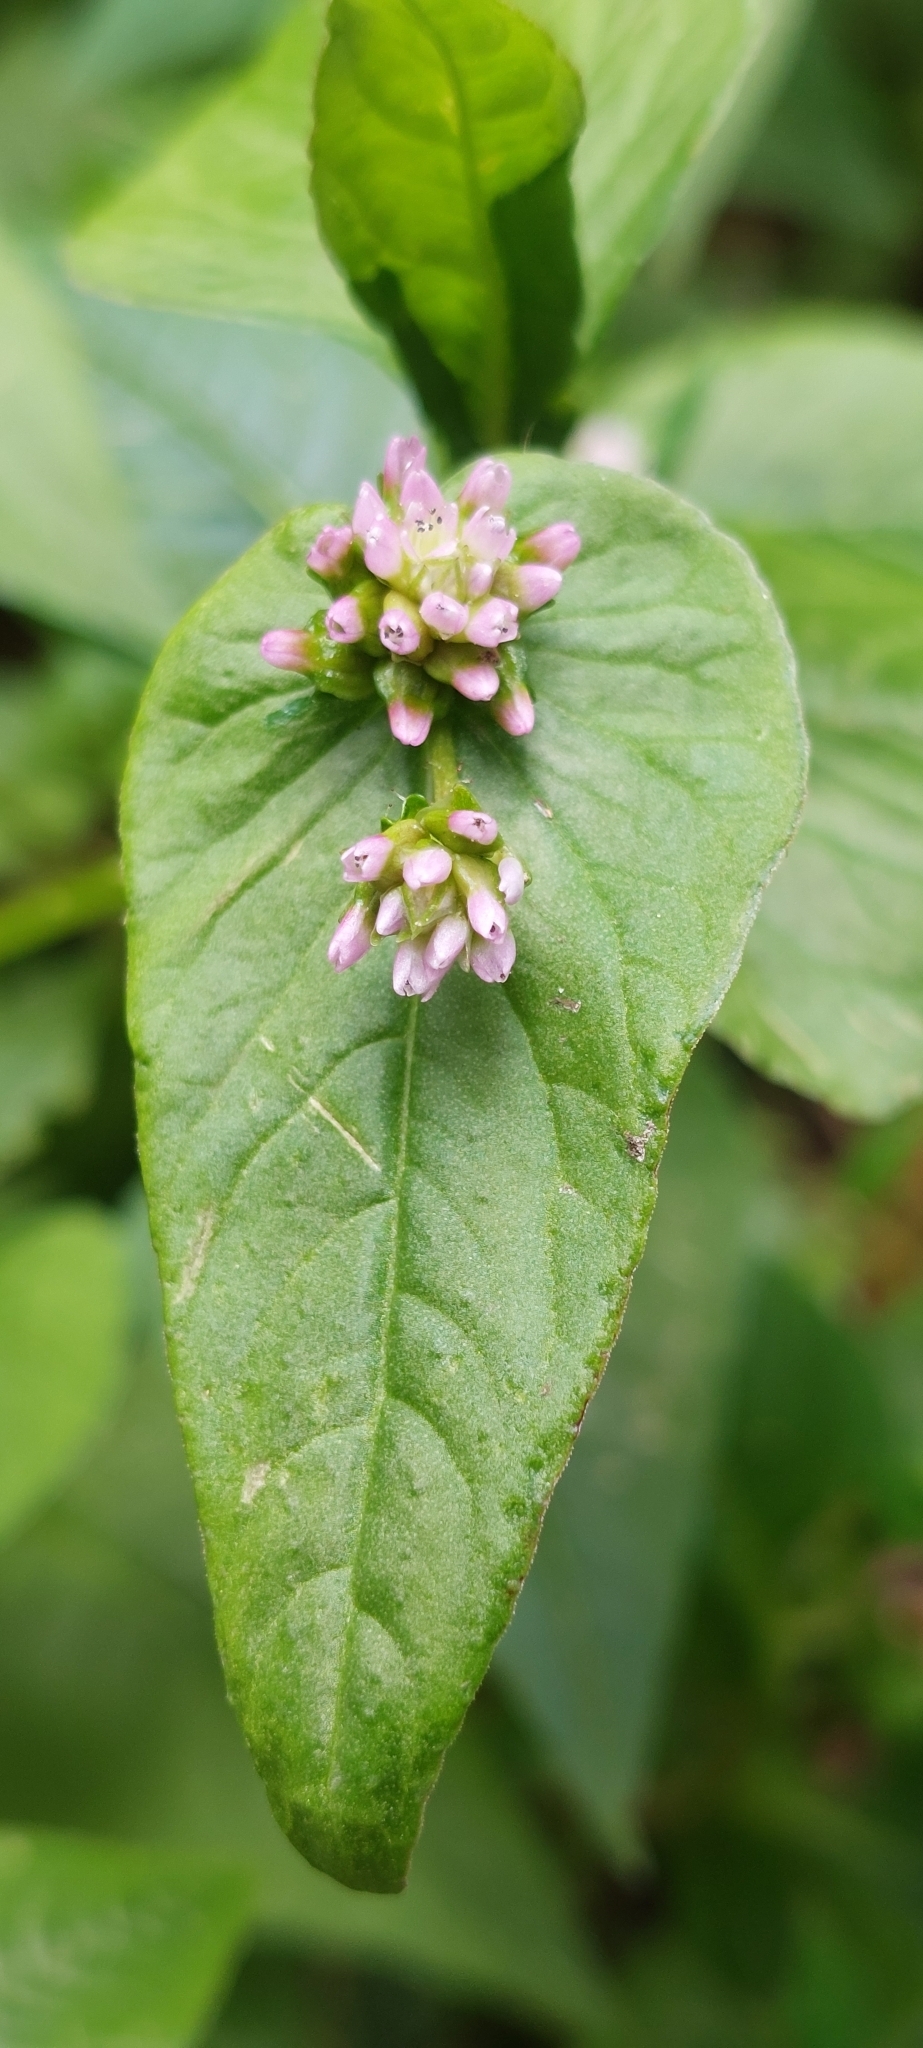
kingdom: Plantae
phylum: Tracheophyta
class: Magnoliopsida
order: Caryophyllales
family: Polygonaceae
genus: Persicaria
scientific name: Persicaria nepalensis
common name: Nepal persicaria
